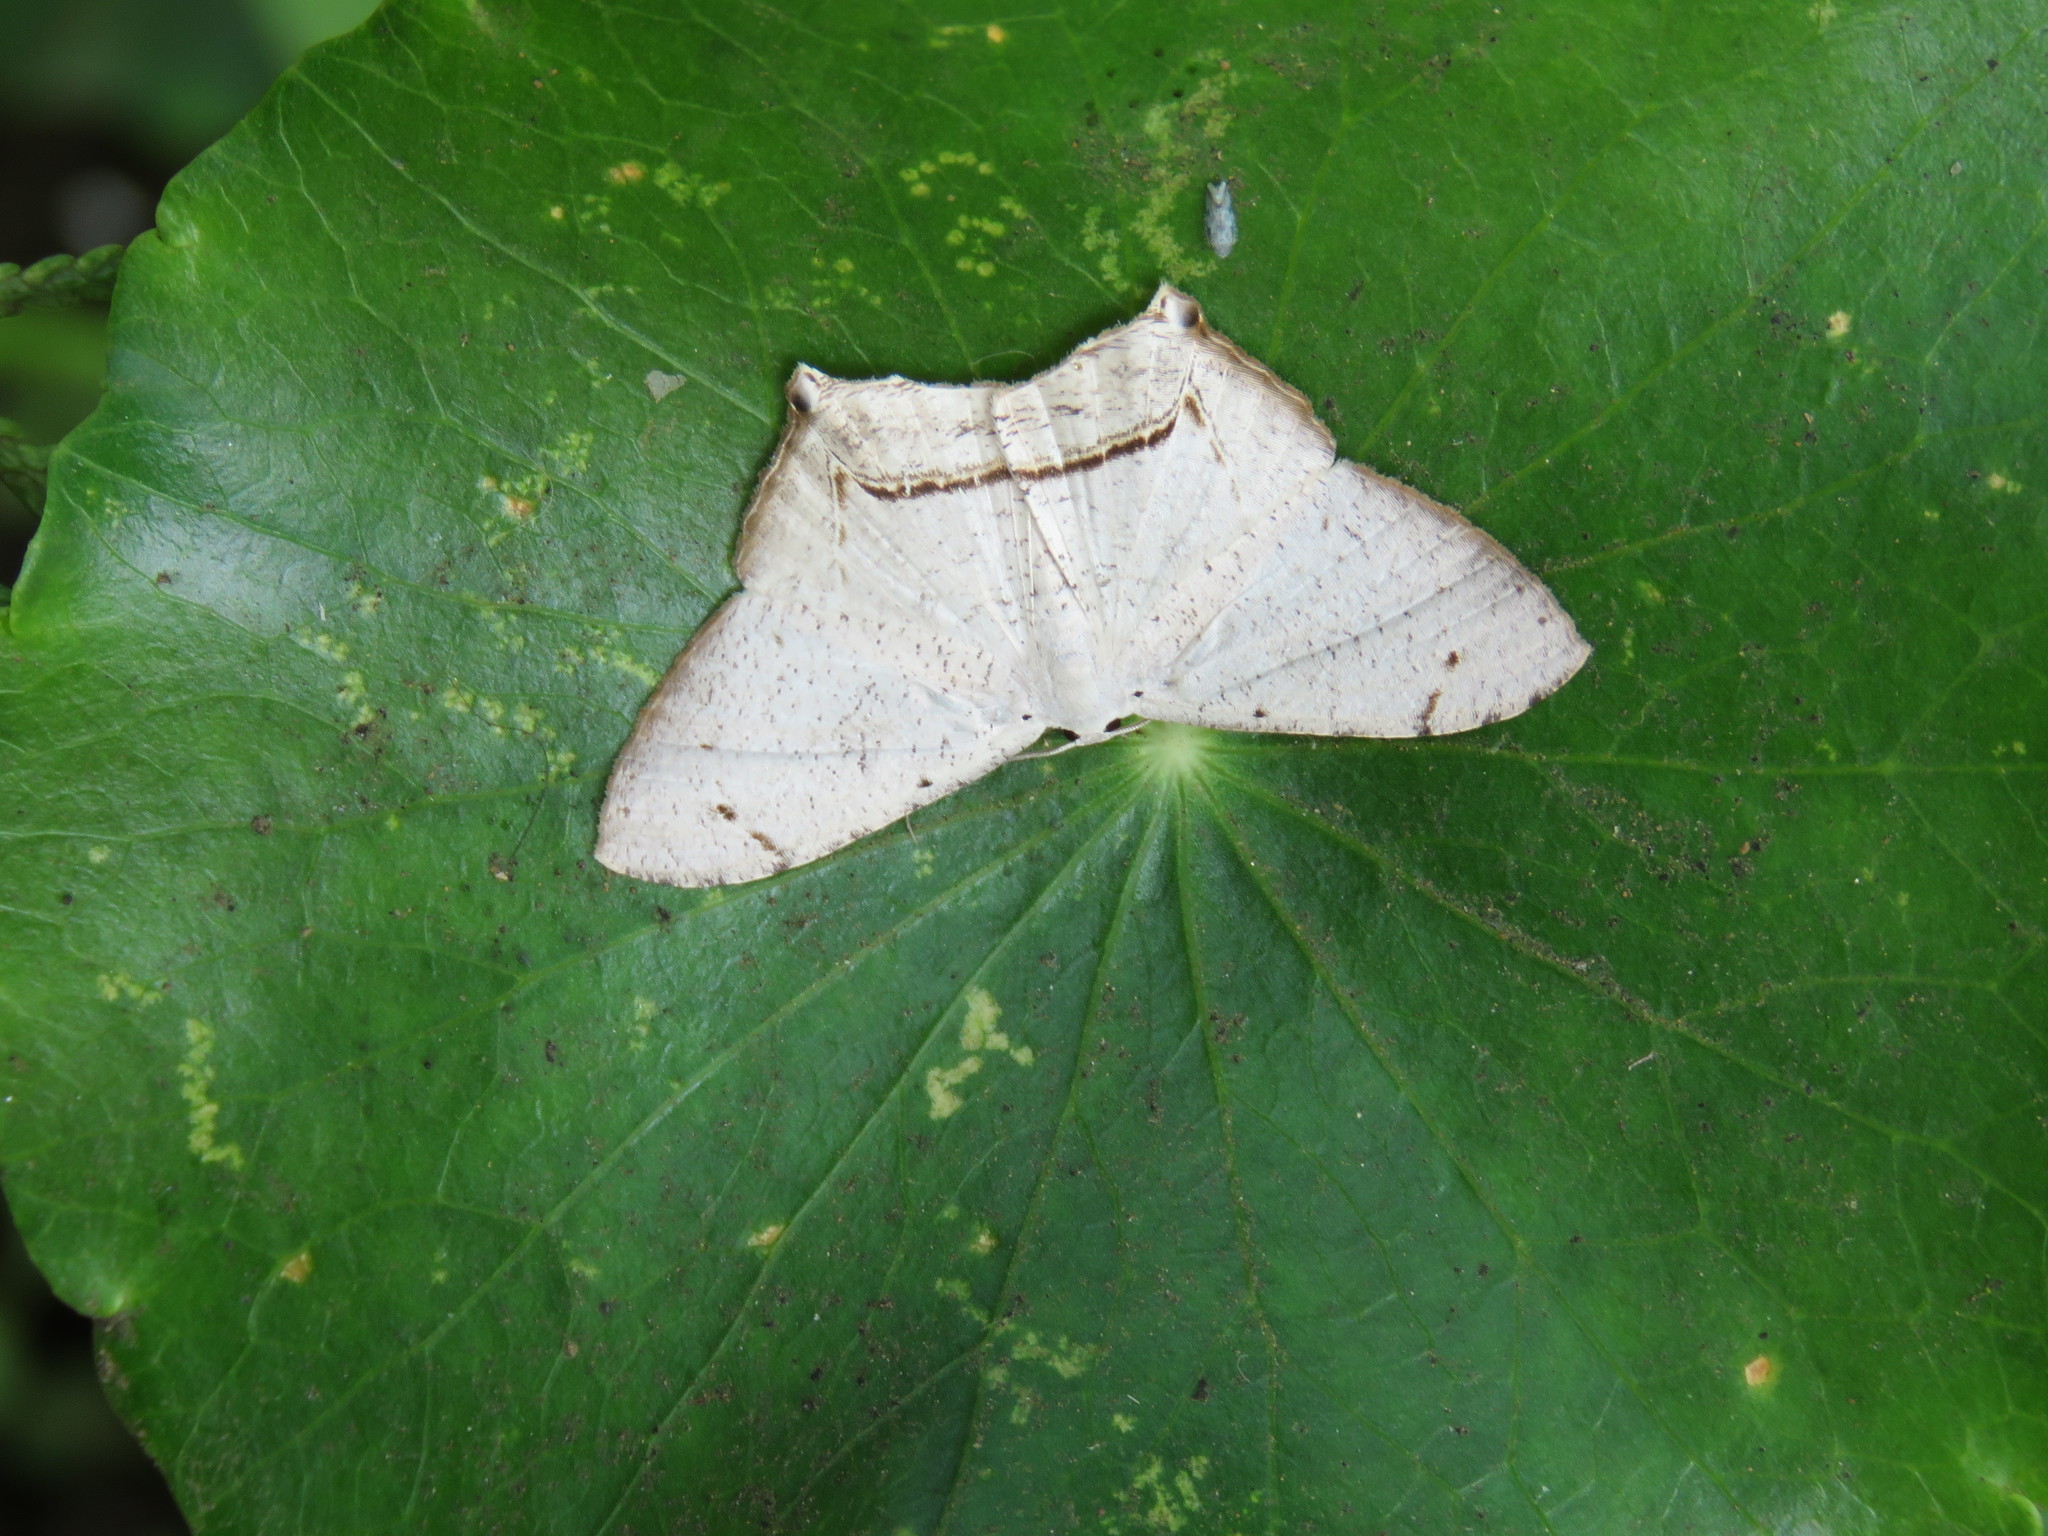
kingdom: Animalia
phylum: Arthropoda
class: Insecta
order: Lepidoptera
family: Uraniidae
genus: Nedusia
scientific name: Nedusia cuticulata
